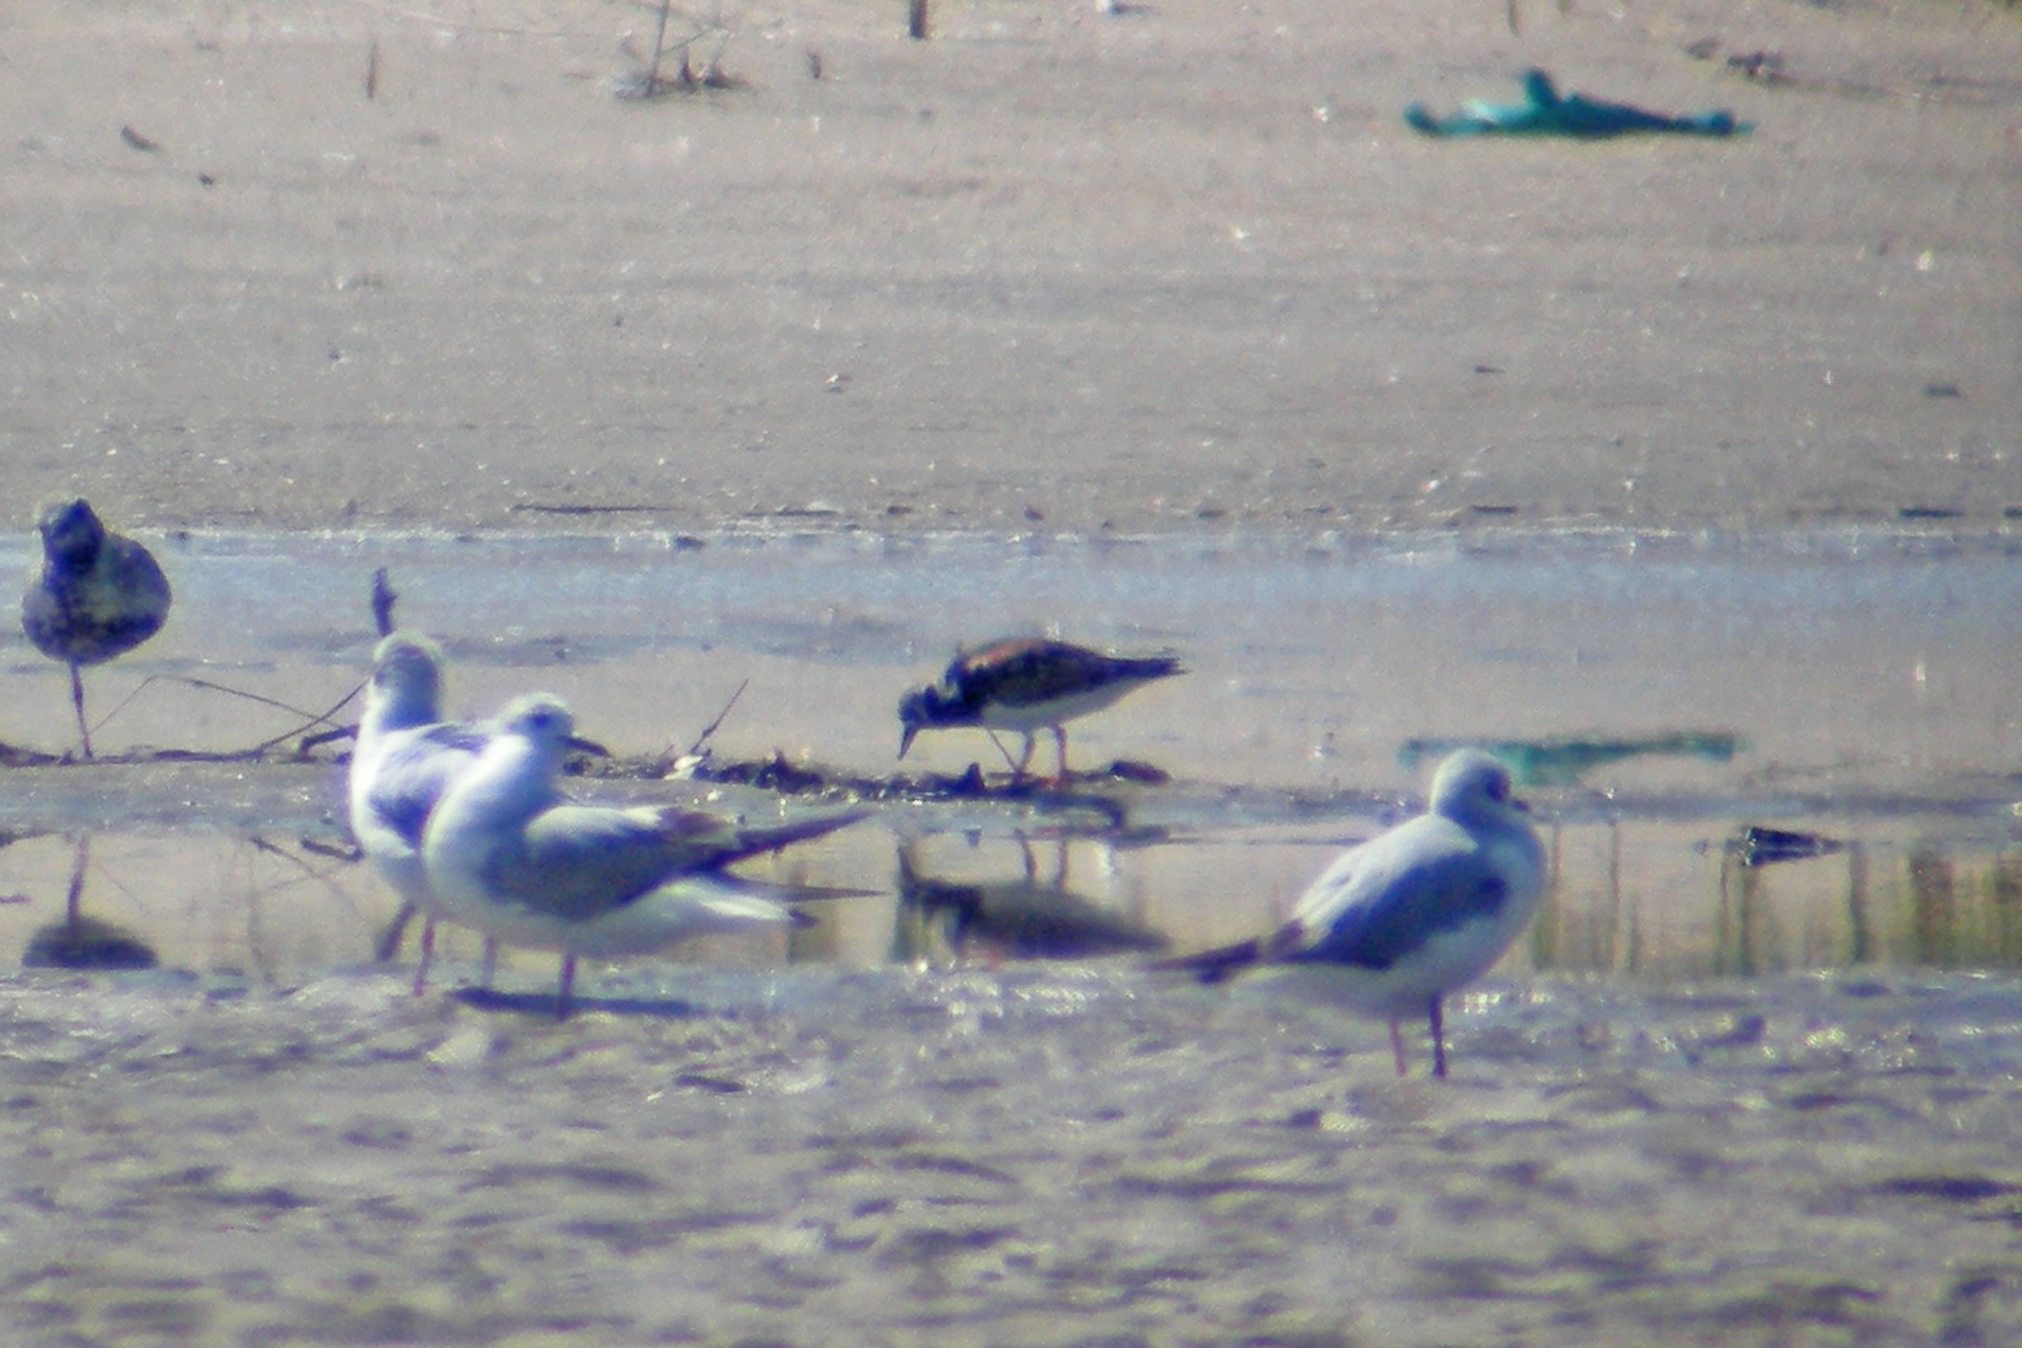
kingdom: Animalia
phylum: Chordata
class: Aves
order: Charadriiformes
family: Scolopacidae
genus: Arenaria
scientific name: Arenaria interpres
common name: Ruddy turnstone
